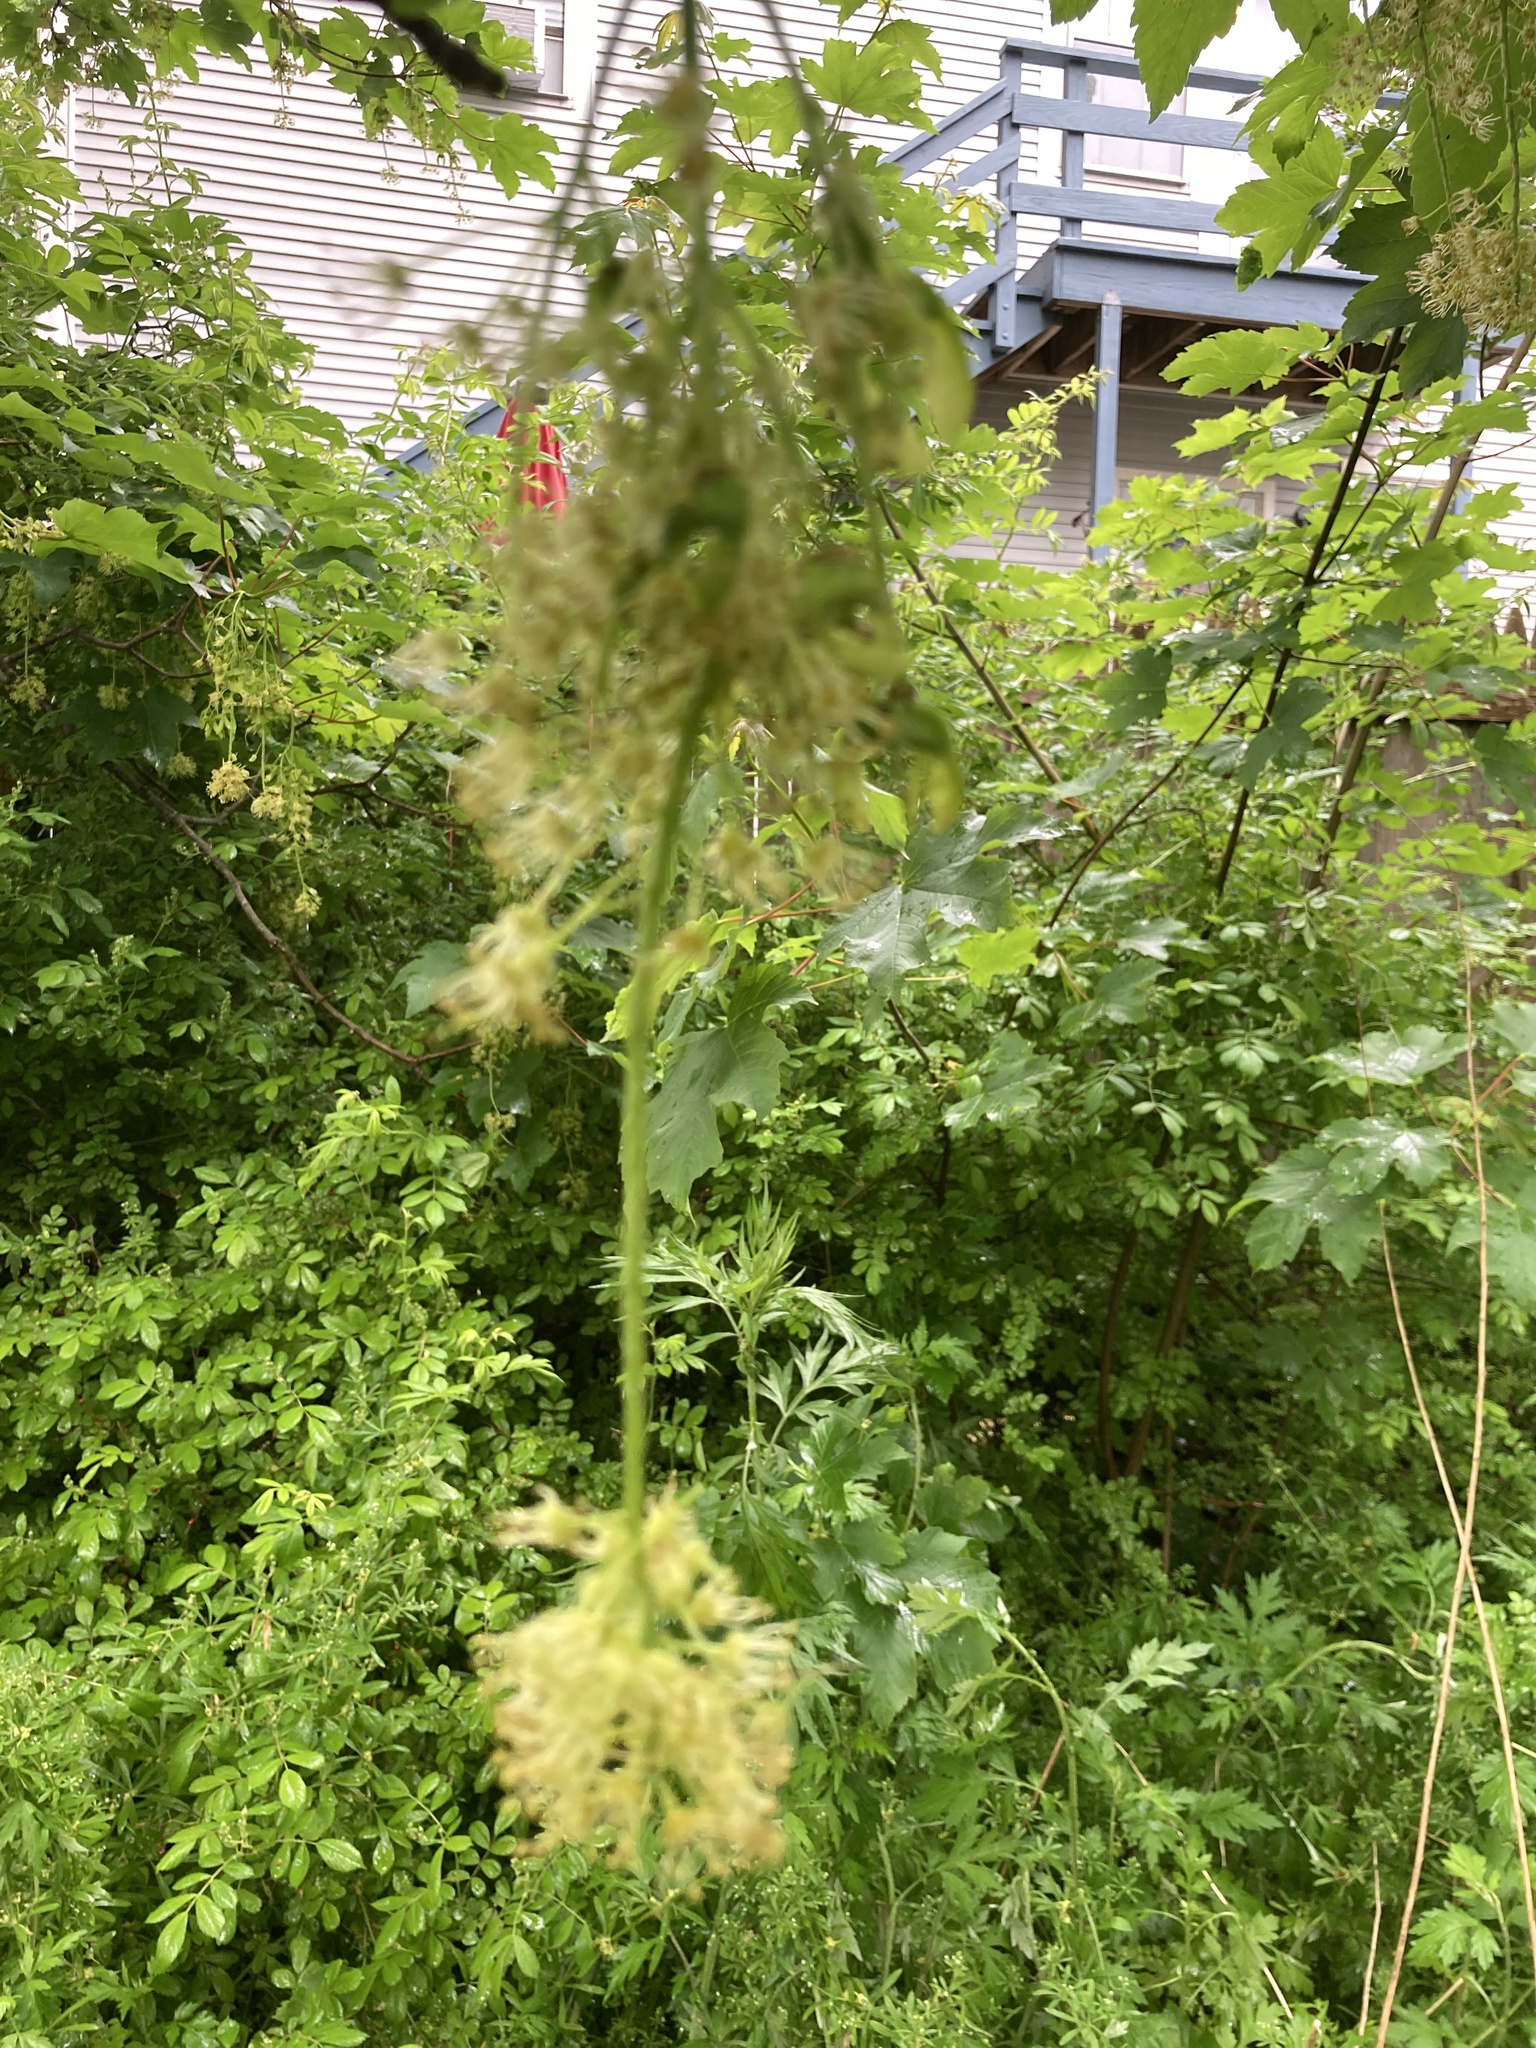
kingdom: Plantae
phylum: Tracheophyta
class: Magnoliopsida
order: Sapindales
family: Sapindaceae
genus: Acer
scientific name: Acer pseudoplatanus
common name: Sycamore
